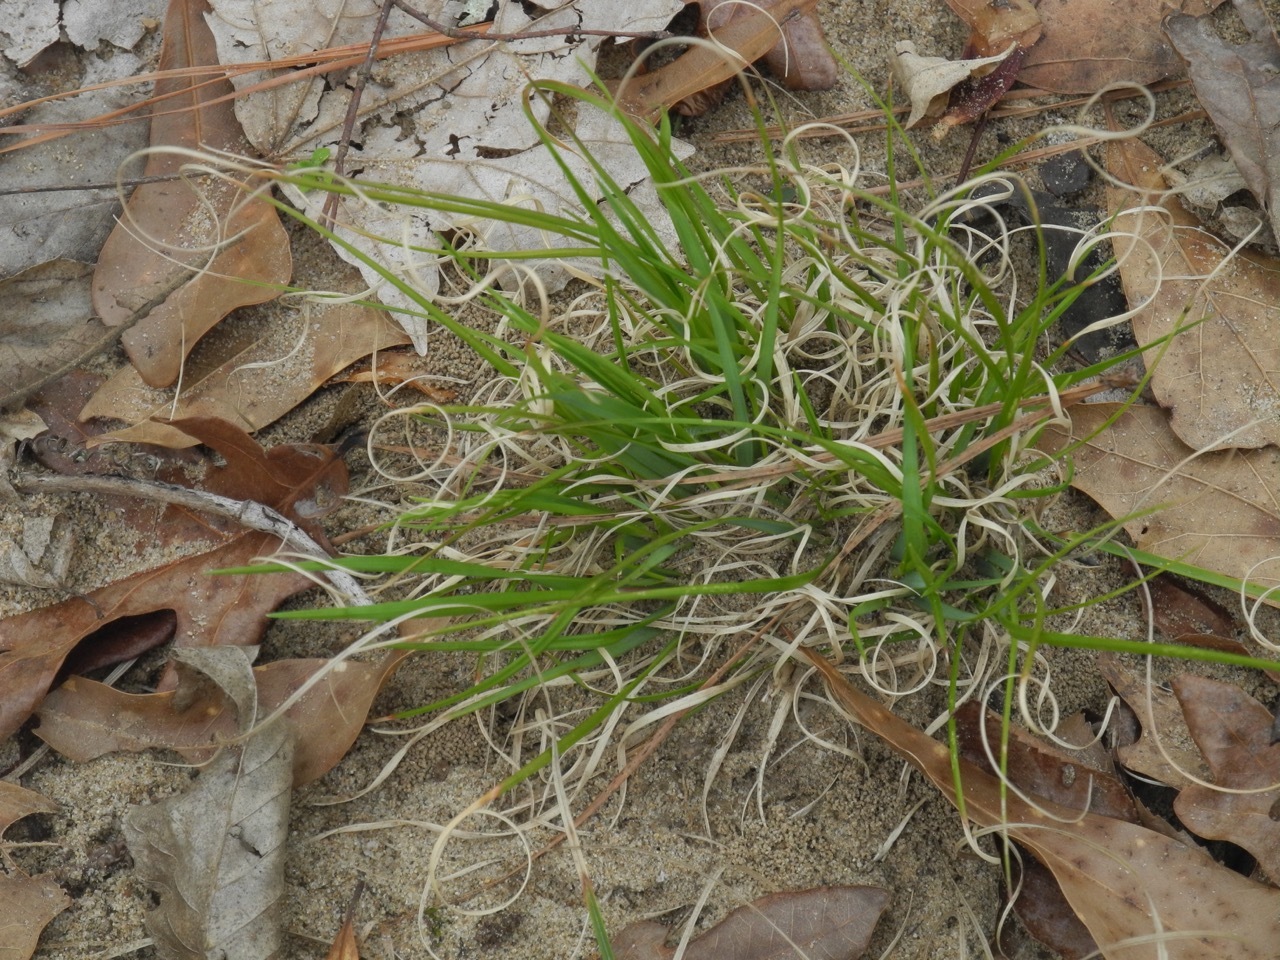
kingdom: Plantae
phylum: Tracheophyta
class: Liliopsida
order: Poales
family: Poaceae
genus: Danthonia
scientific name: Danthonia spicata
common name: Common wild oatgrass
